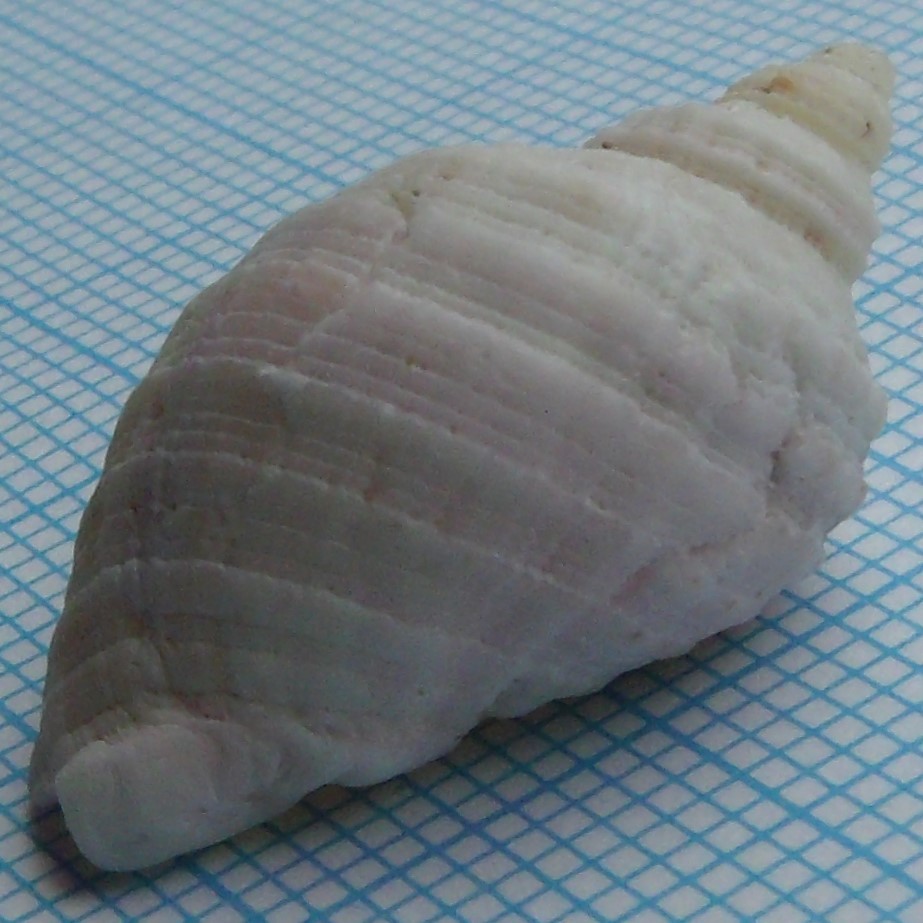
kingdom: Animalia
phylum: Mollusca
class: Gastropoda
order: Neogastropoda
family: Muricidae
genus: Dicathais
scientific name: Dicathais orbita
